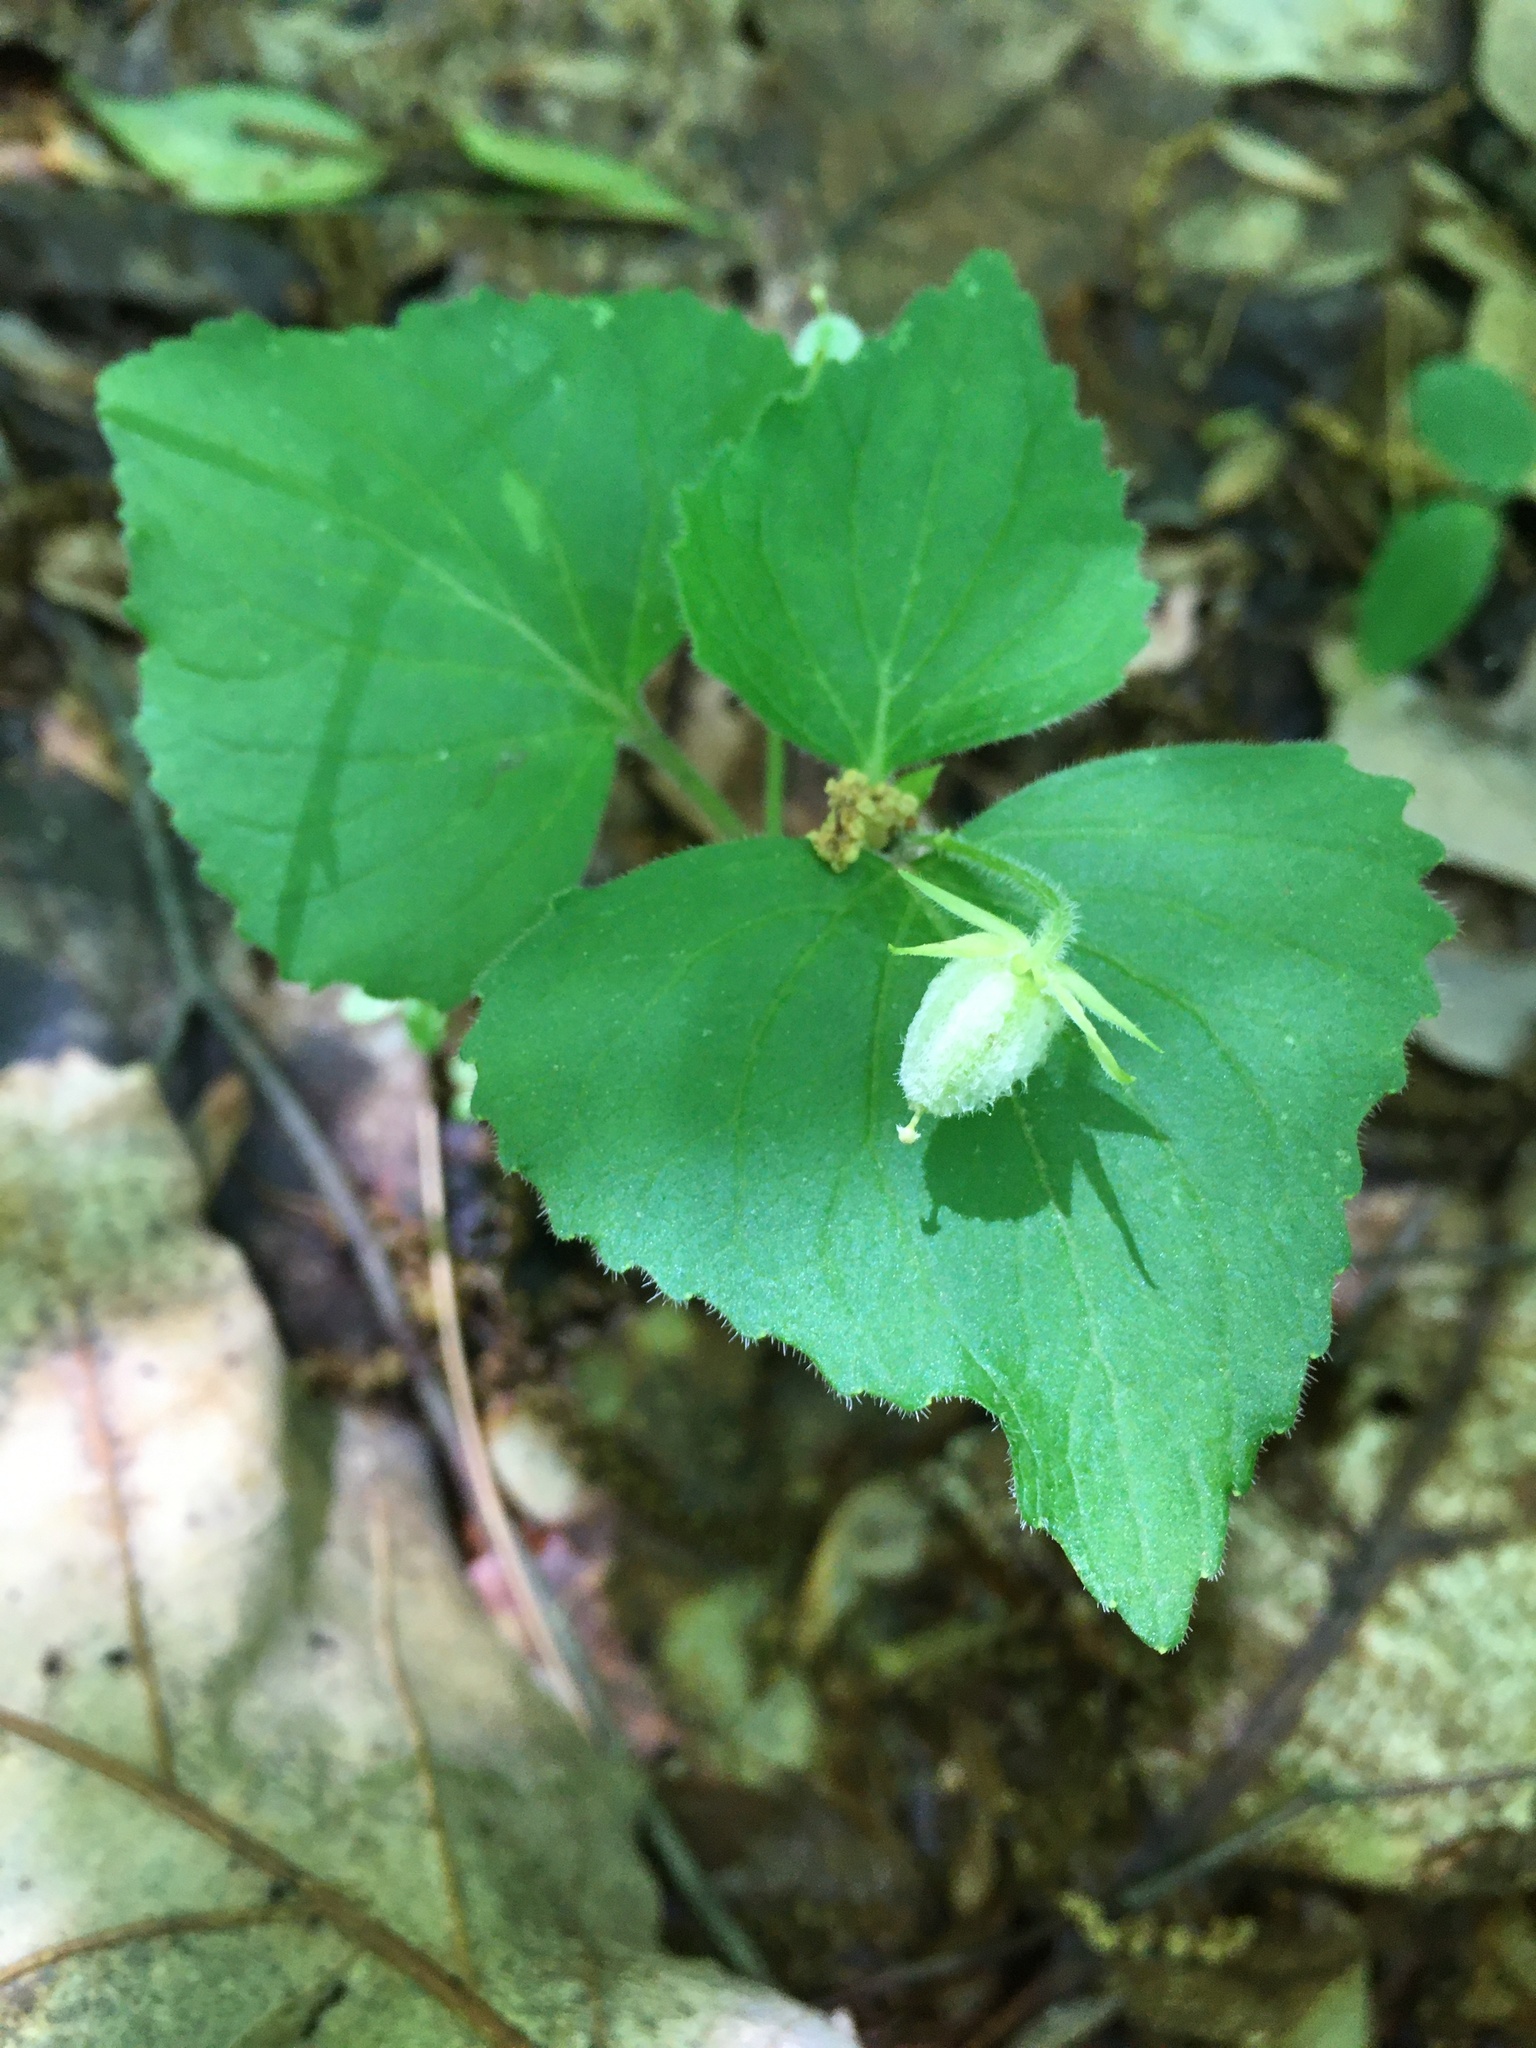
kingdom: Plantae
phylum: Tracheophyta
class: Magnoliopsida
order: Malpighiales
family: Violaceae
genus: Viola
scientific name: Viola pubescens
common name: Yellow forest violet
